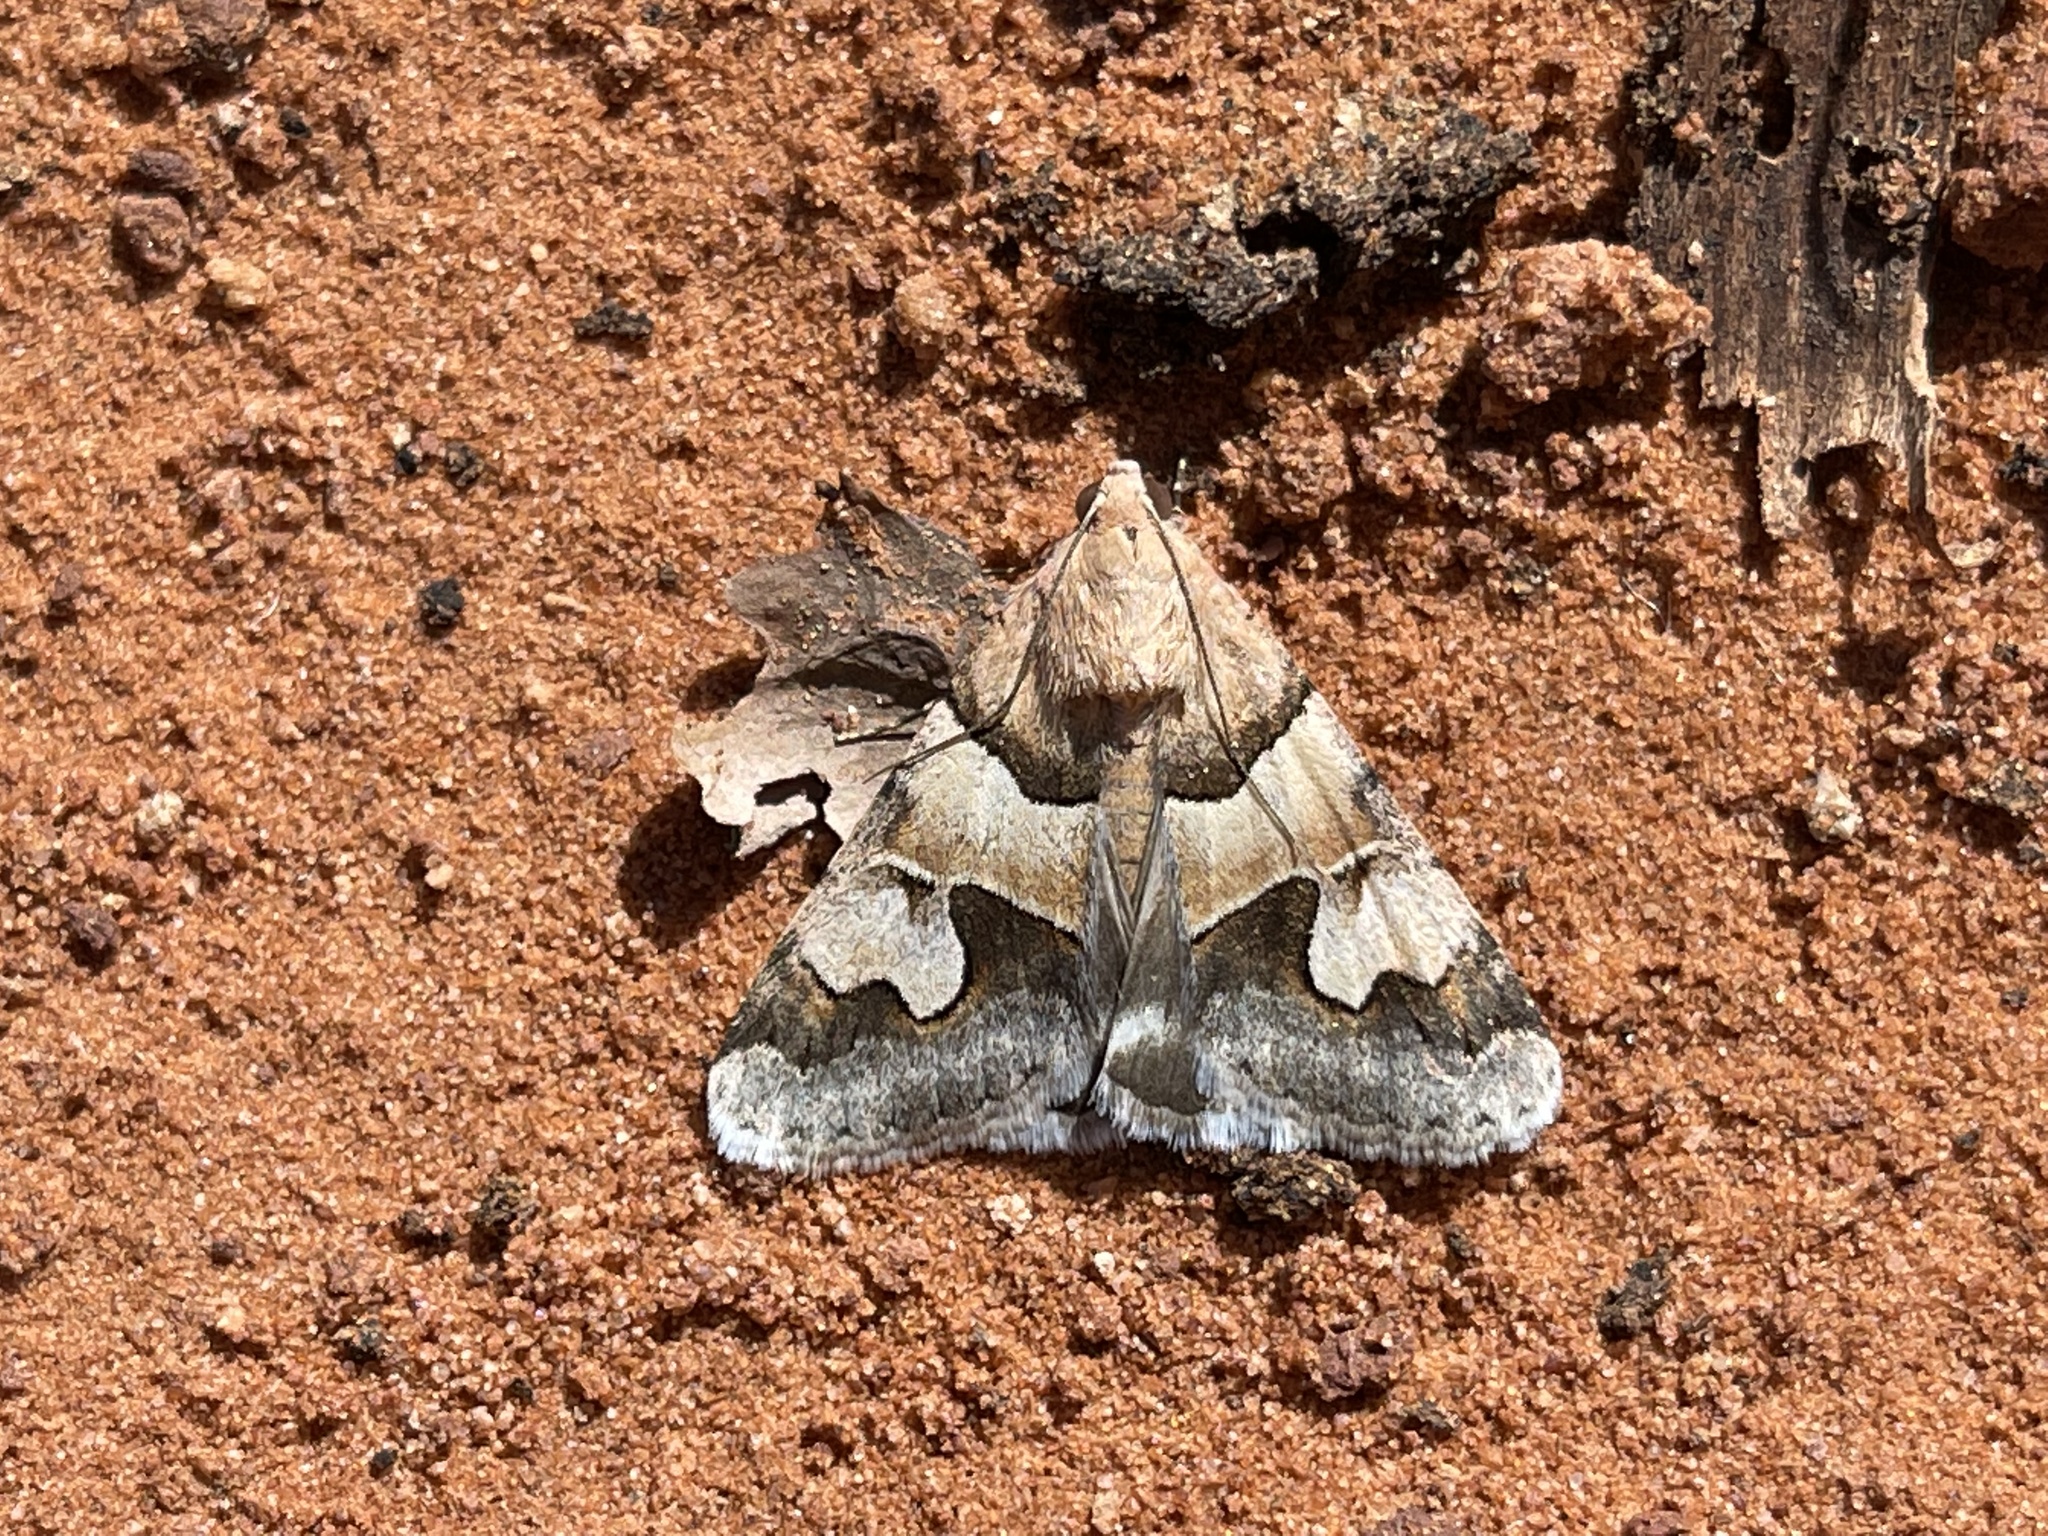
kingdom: Animalia
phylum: Arthropoda
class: Insecta
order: Lepidoptera
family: Erebidae
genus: Drasteria
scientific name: Drasteria pallescens
